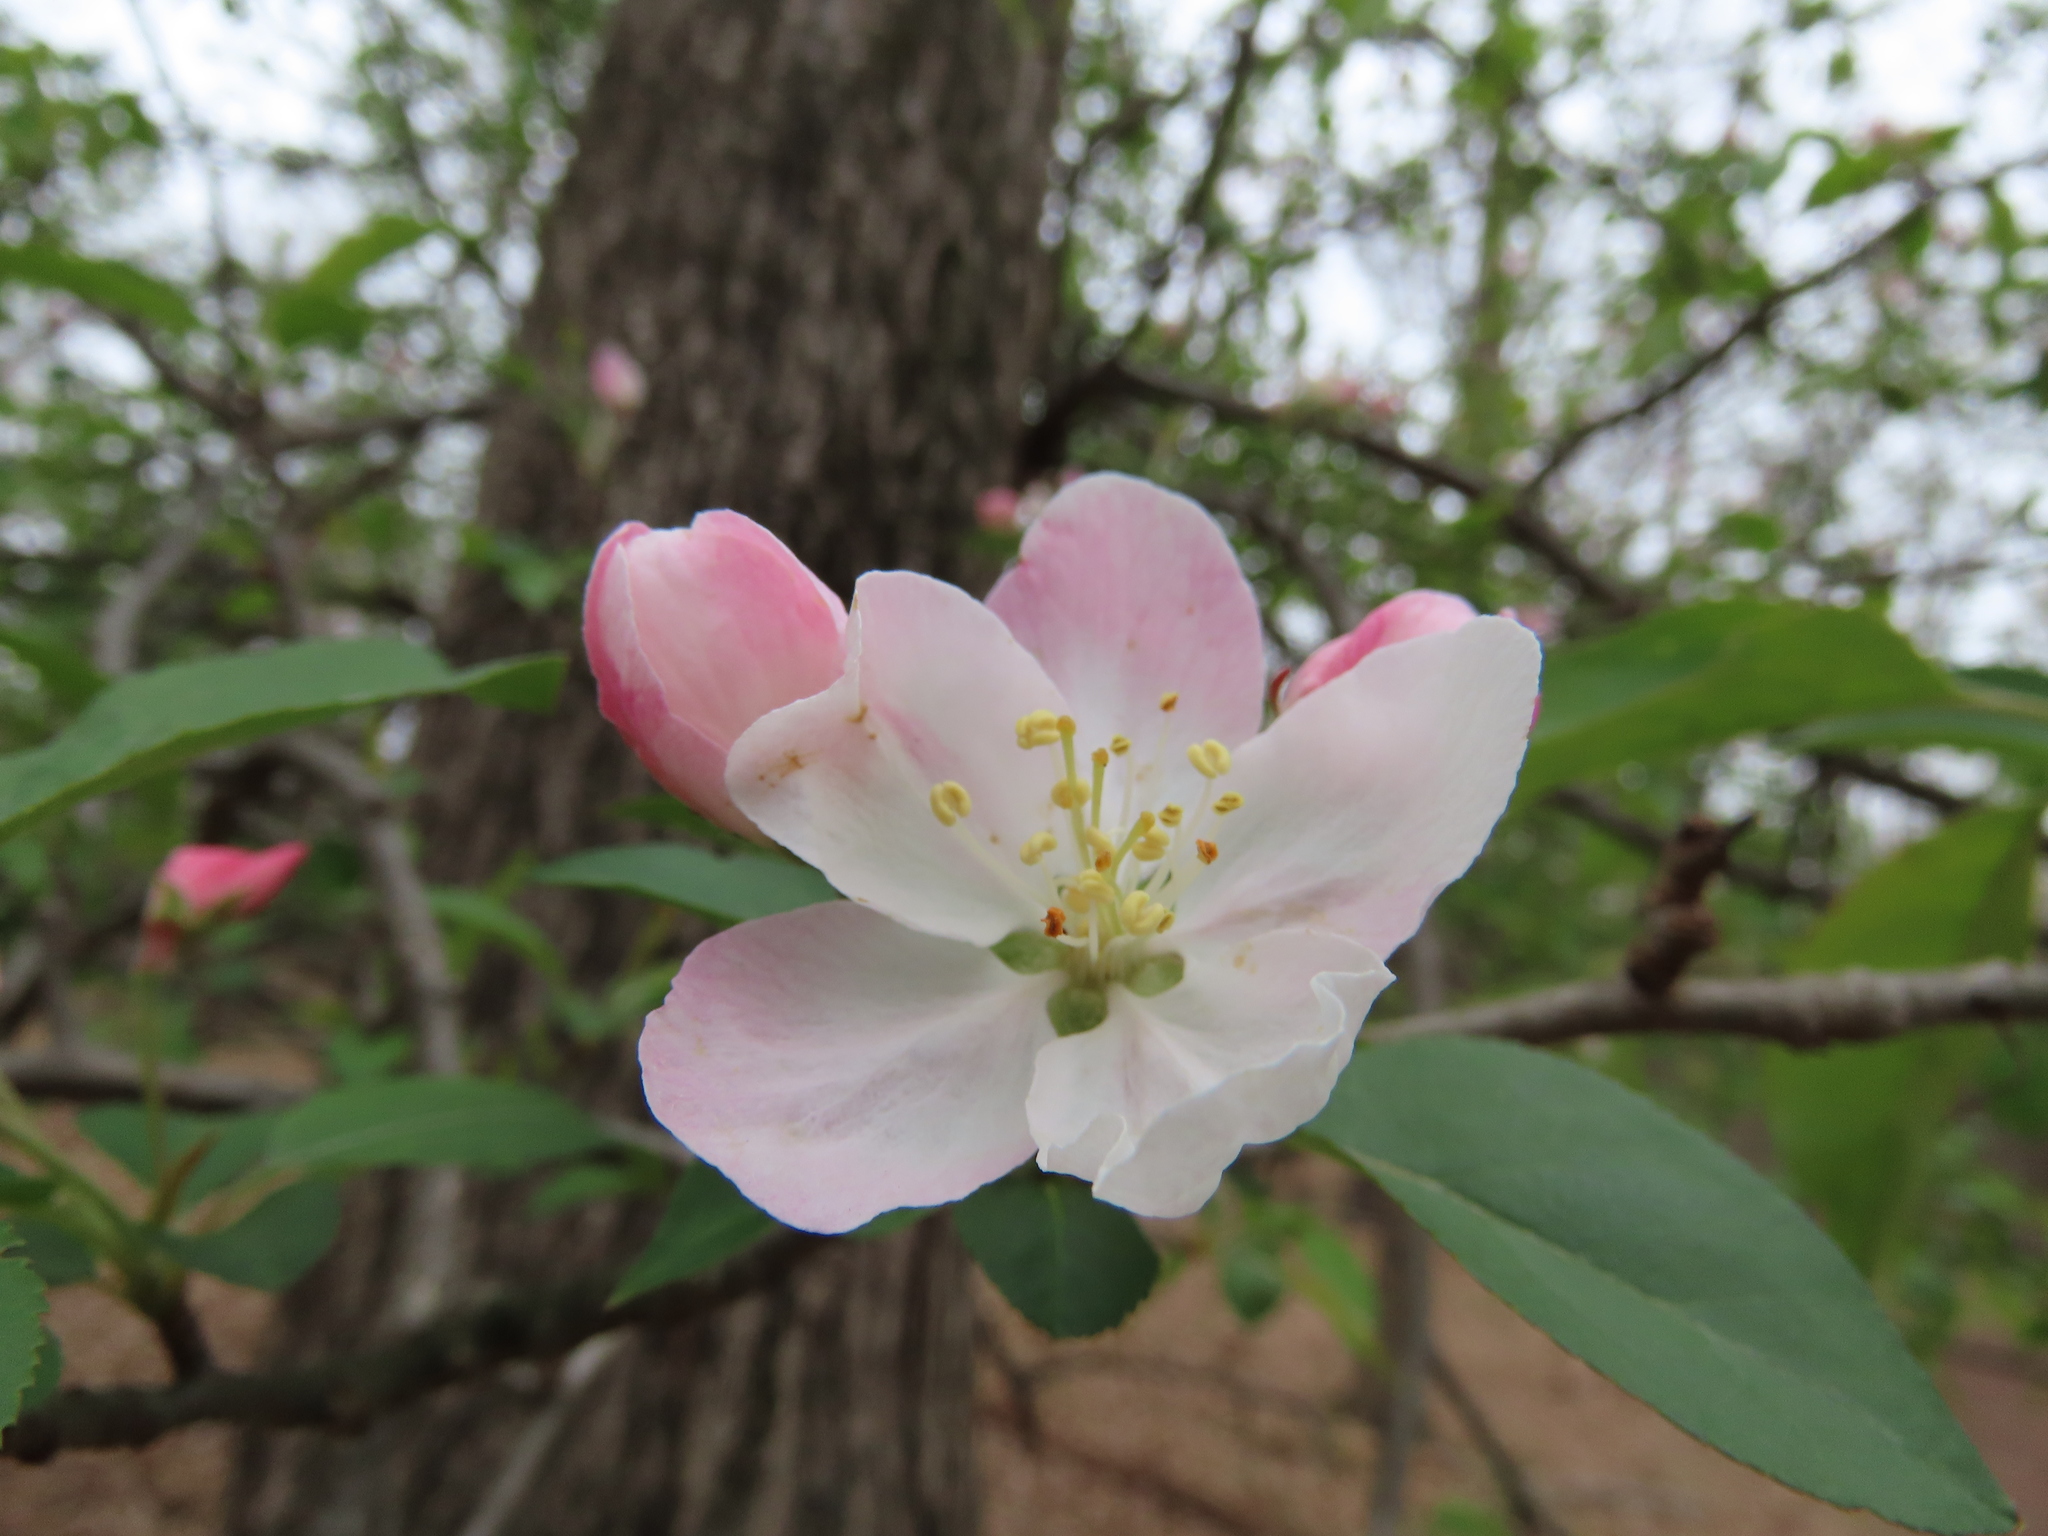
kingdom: Plantae
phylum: Tracheophyta
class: Magnoliopsida
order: Rosales
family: Rosaceae
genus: Malus
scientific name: Malus toringo
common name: Japanese crabapple
